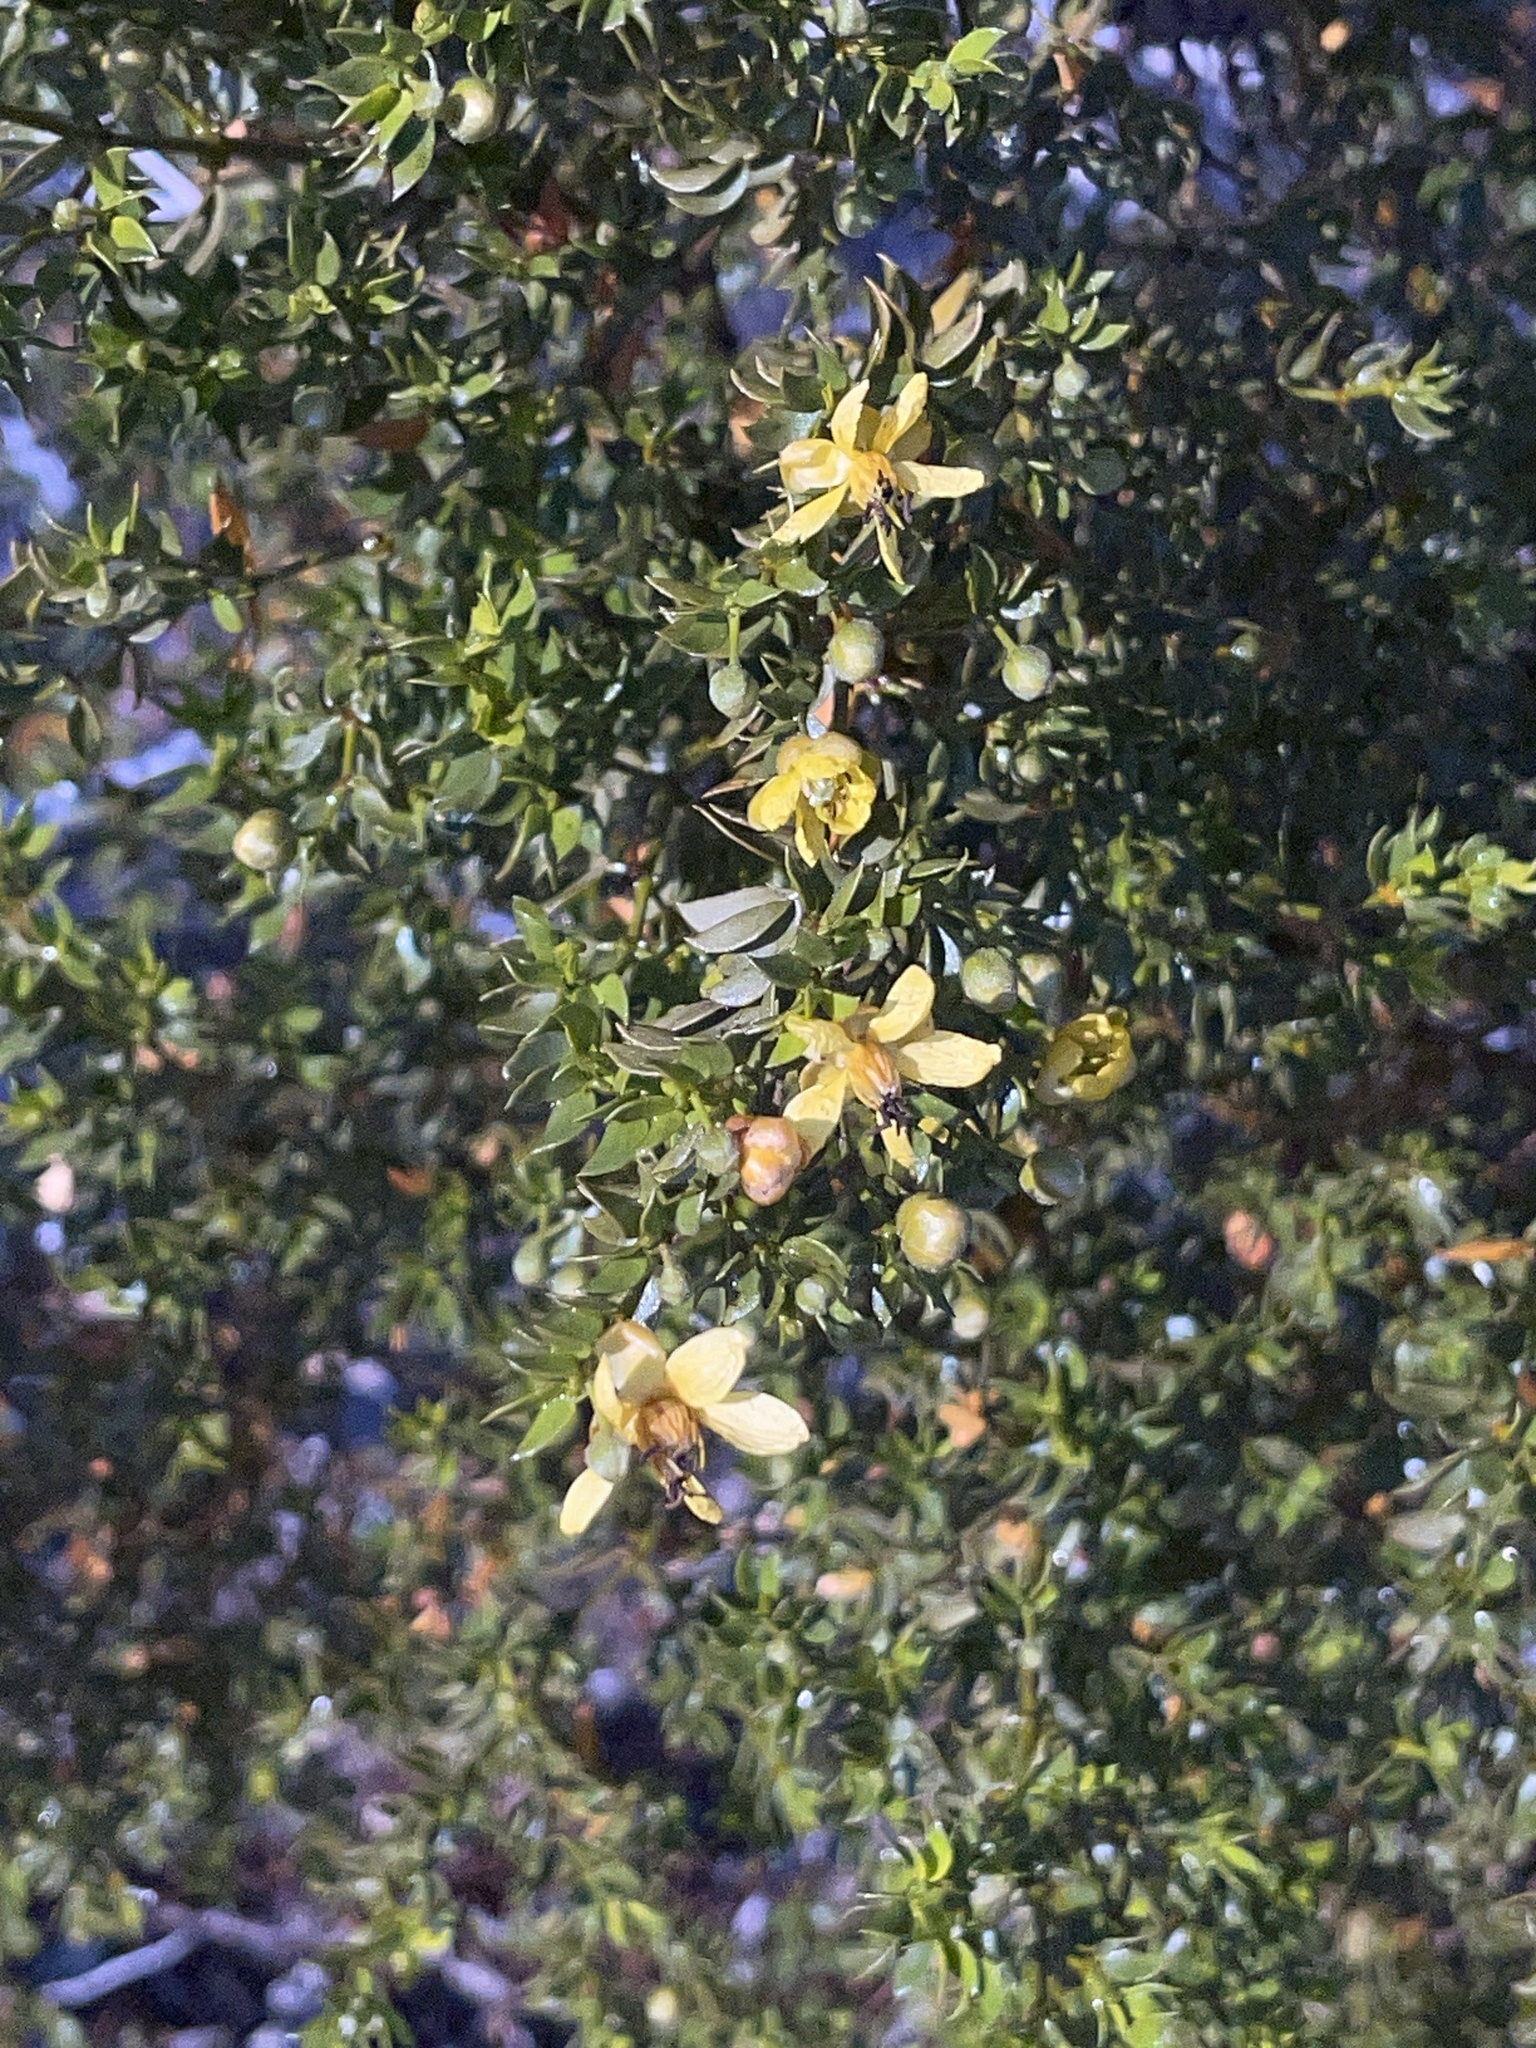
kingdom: Plantae
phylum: Tracheophyta
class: Magnoliopsida
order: Zygophyllales
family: Zygophyllaceae
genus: Larrea
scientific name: Larrea tridentata
